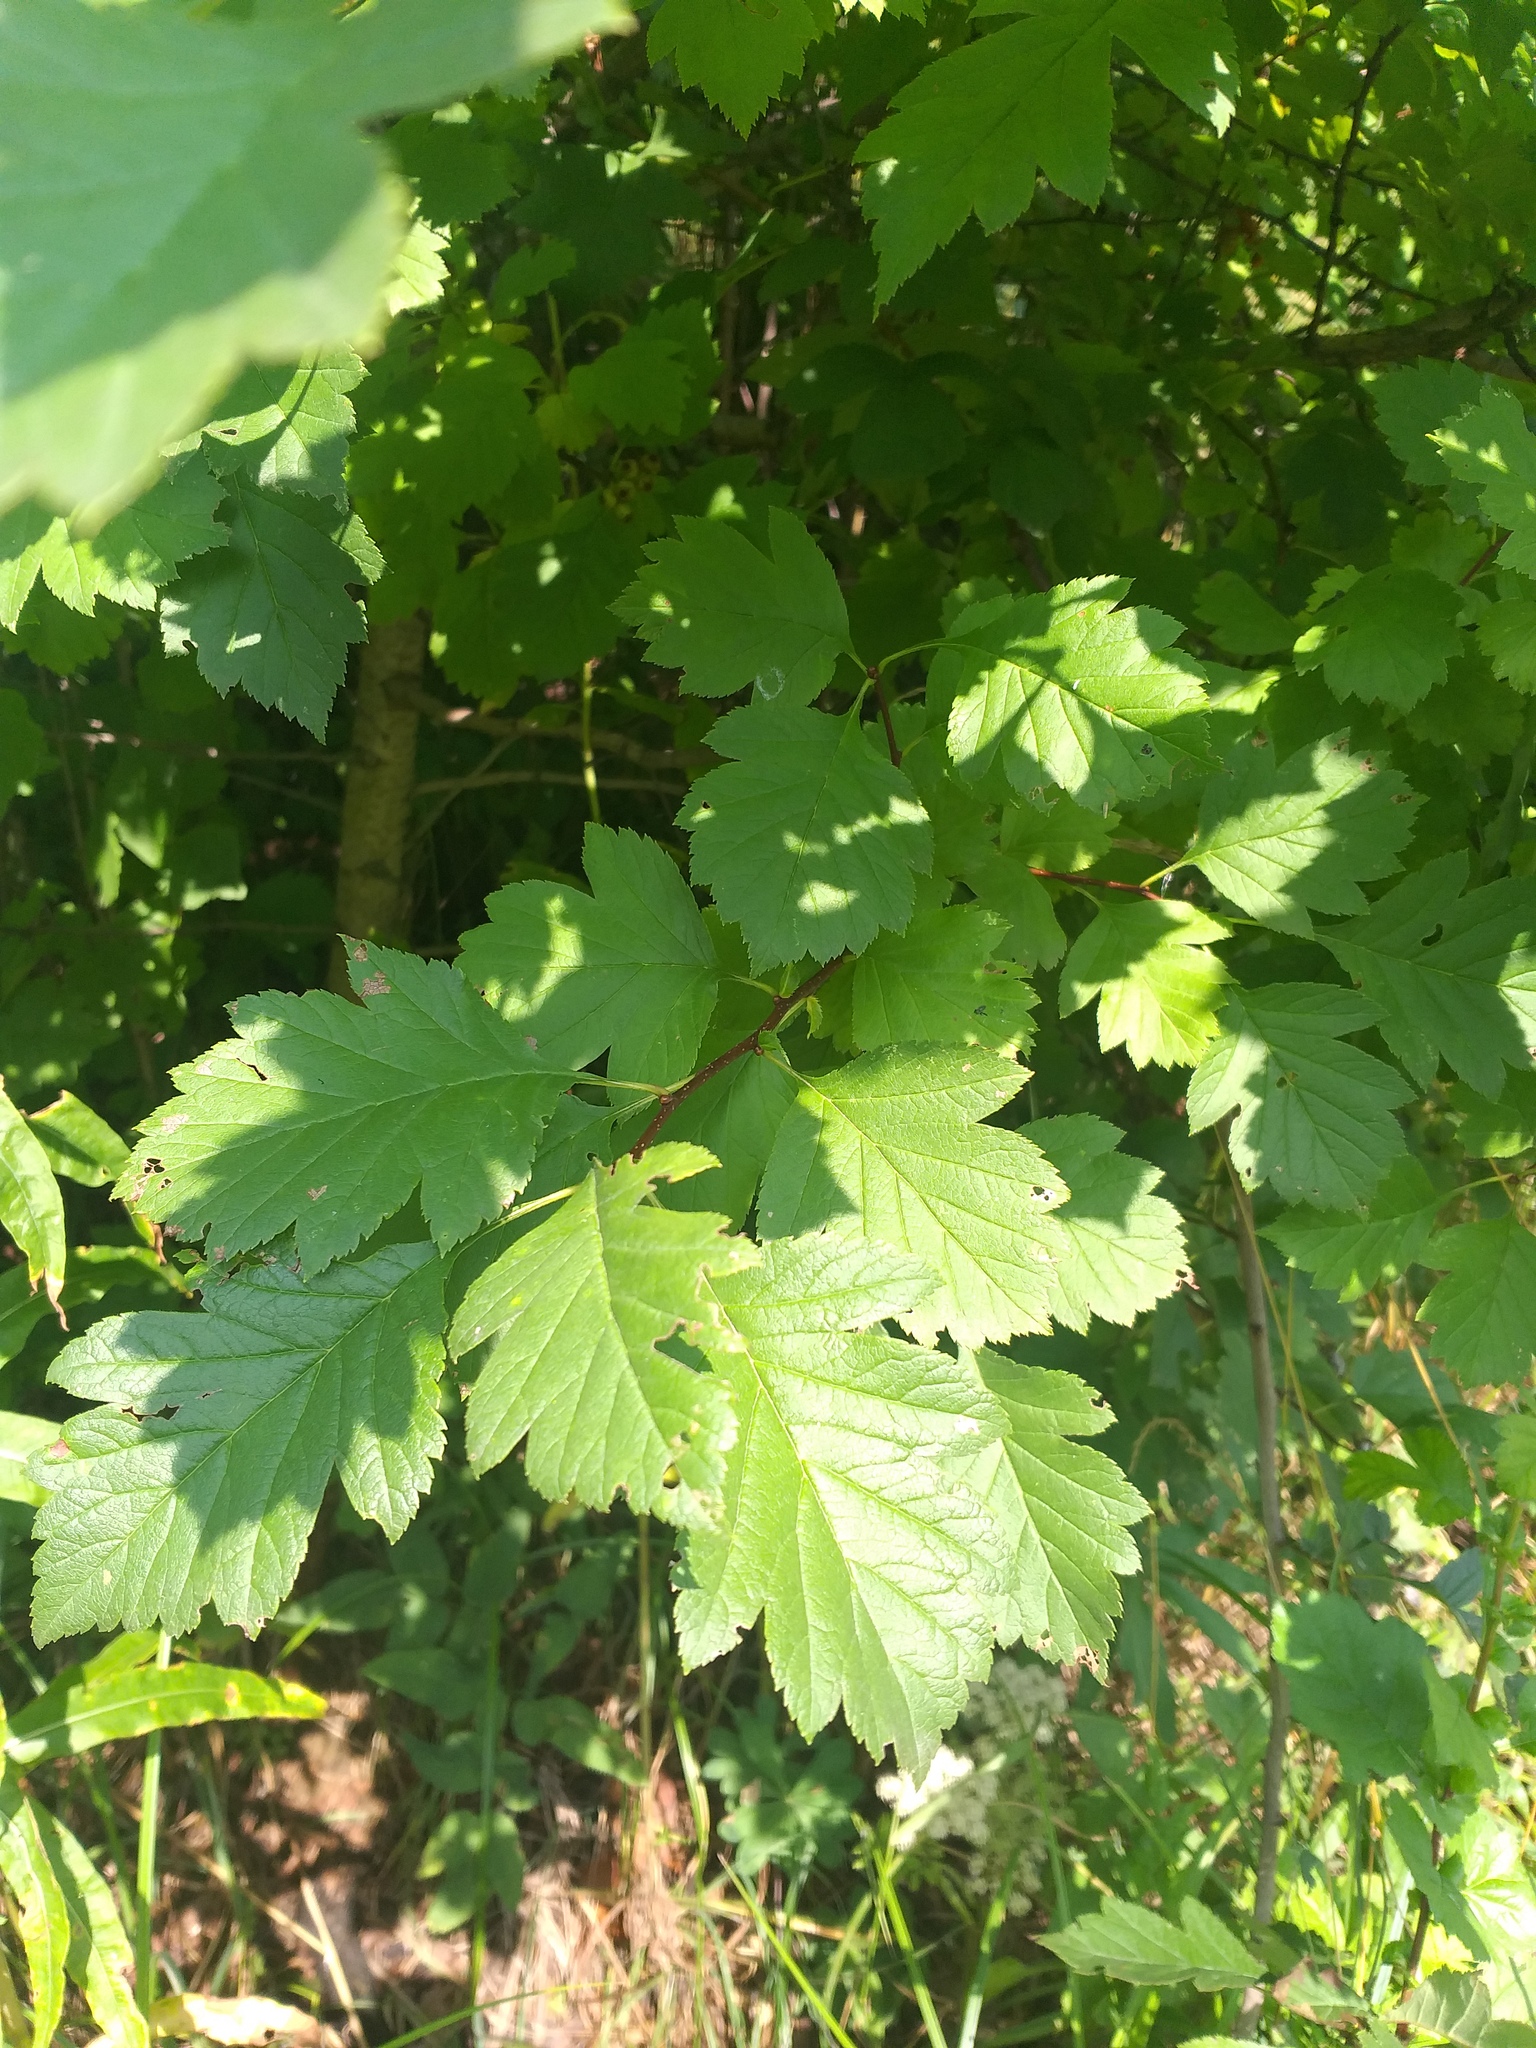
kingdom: Plantae
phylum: Tracheophyta
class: Magnoliopsida
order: Rosales
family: Rosaceae
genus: Crataegus
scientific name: Crataegus chlorocarpa
